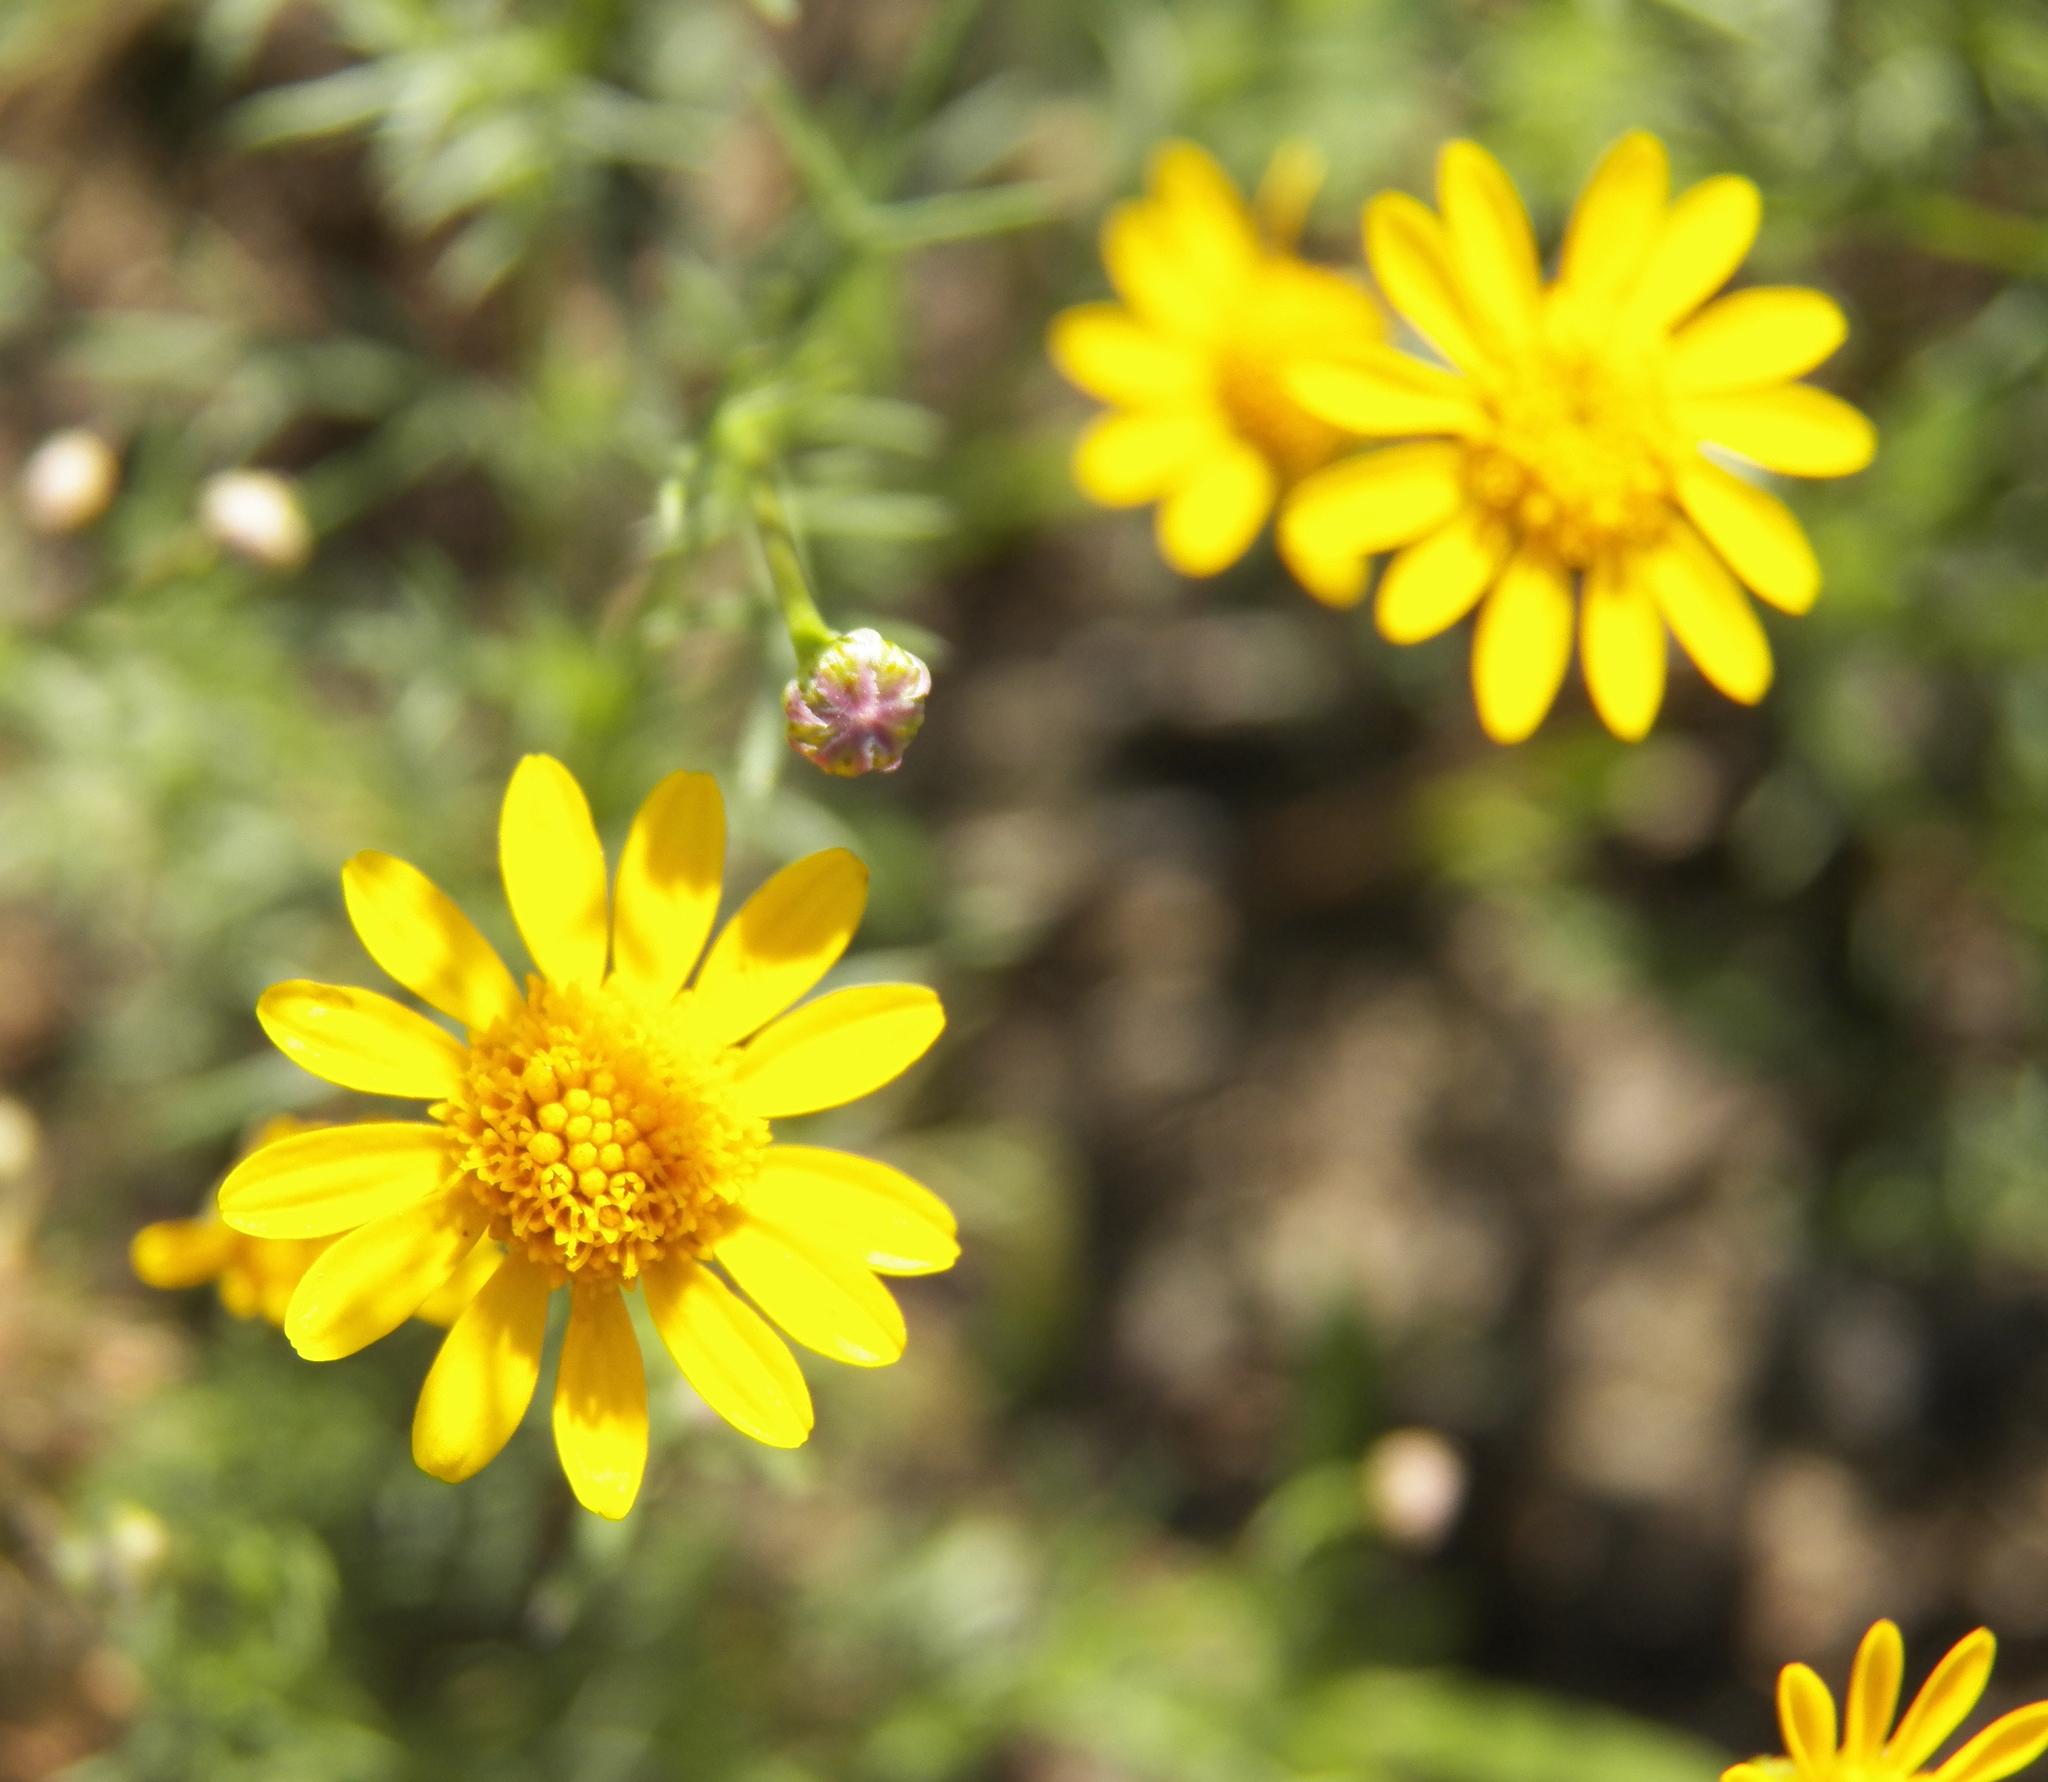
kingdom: Plantae
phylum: Tracheophyta
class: Magnoliopsida
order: Asterales
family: Asteraceae
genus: Thymophylla
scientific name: Thymophylla tenuiloba
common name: Dahlberg's daisy
